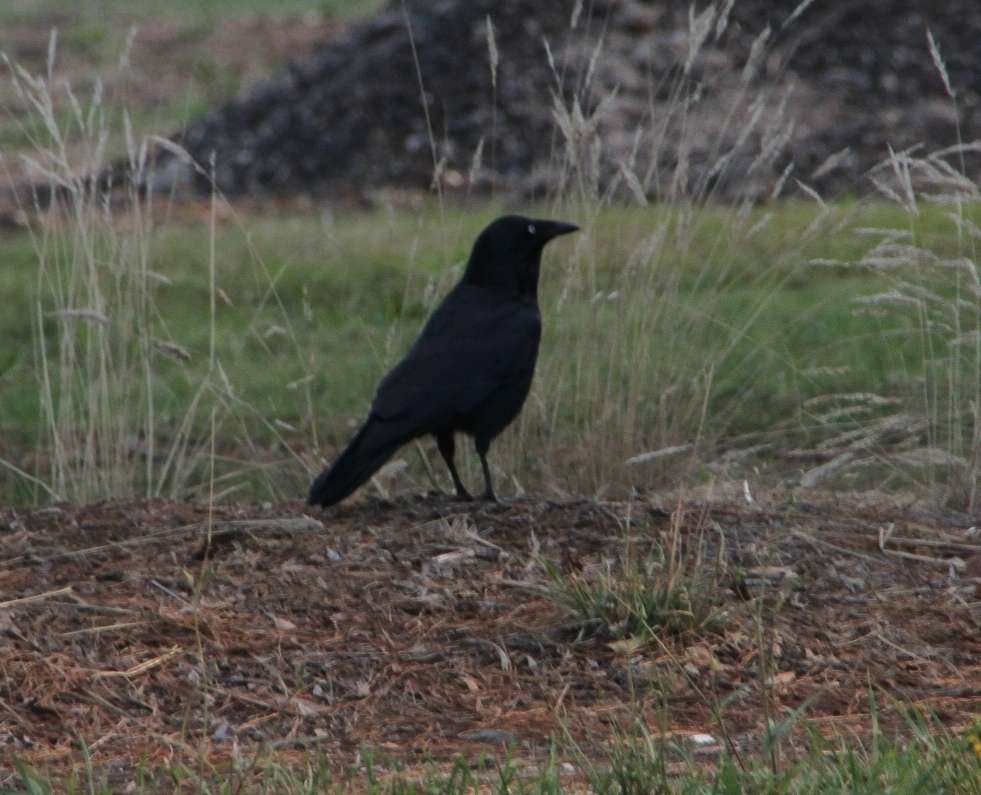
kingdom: Animalia
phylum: Chordata
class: Aves
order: Passeriformes
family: Corvidae
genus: Corvus
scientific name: Corvus mellori
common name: Little raven
